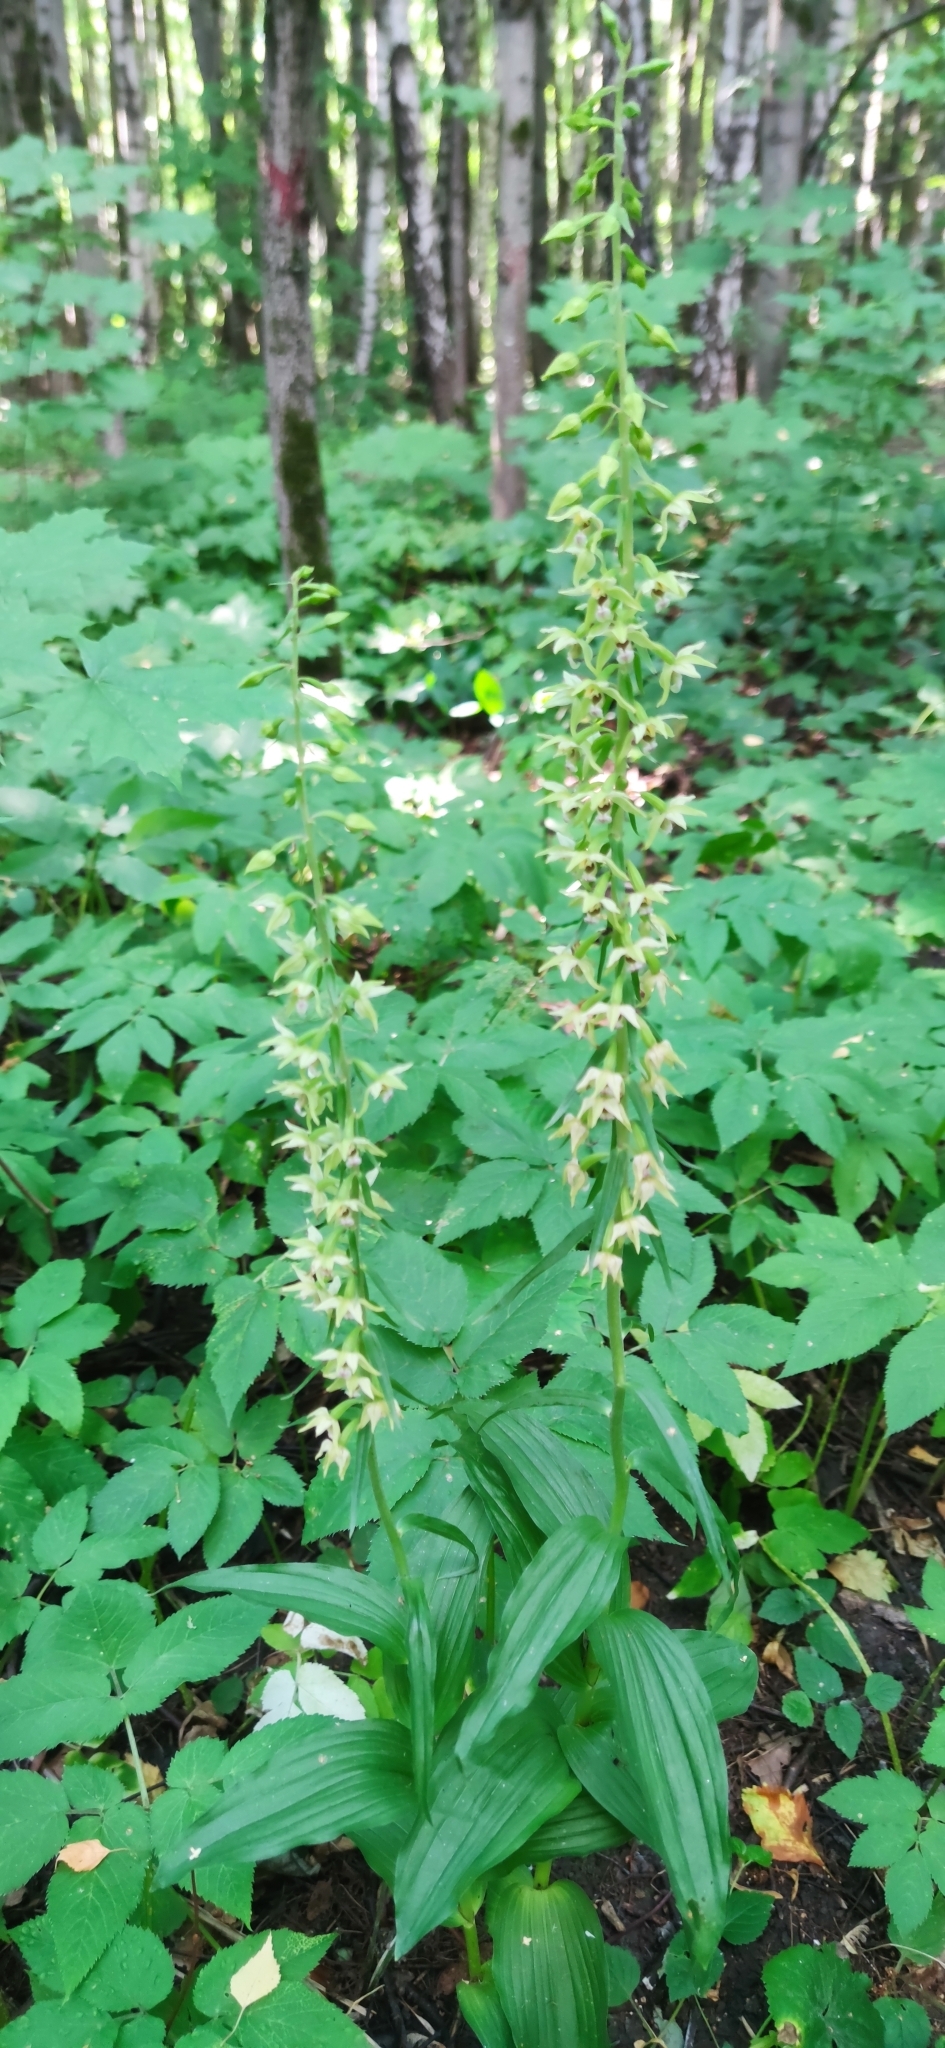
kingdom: Plantae
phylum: Tracheophyta
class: Liliopsida
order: Asparagales
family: Orchidaceae
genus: Epipactis
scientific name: Epipactis helleborine
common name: Broad-leaved helleborine
